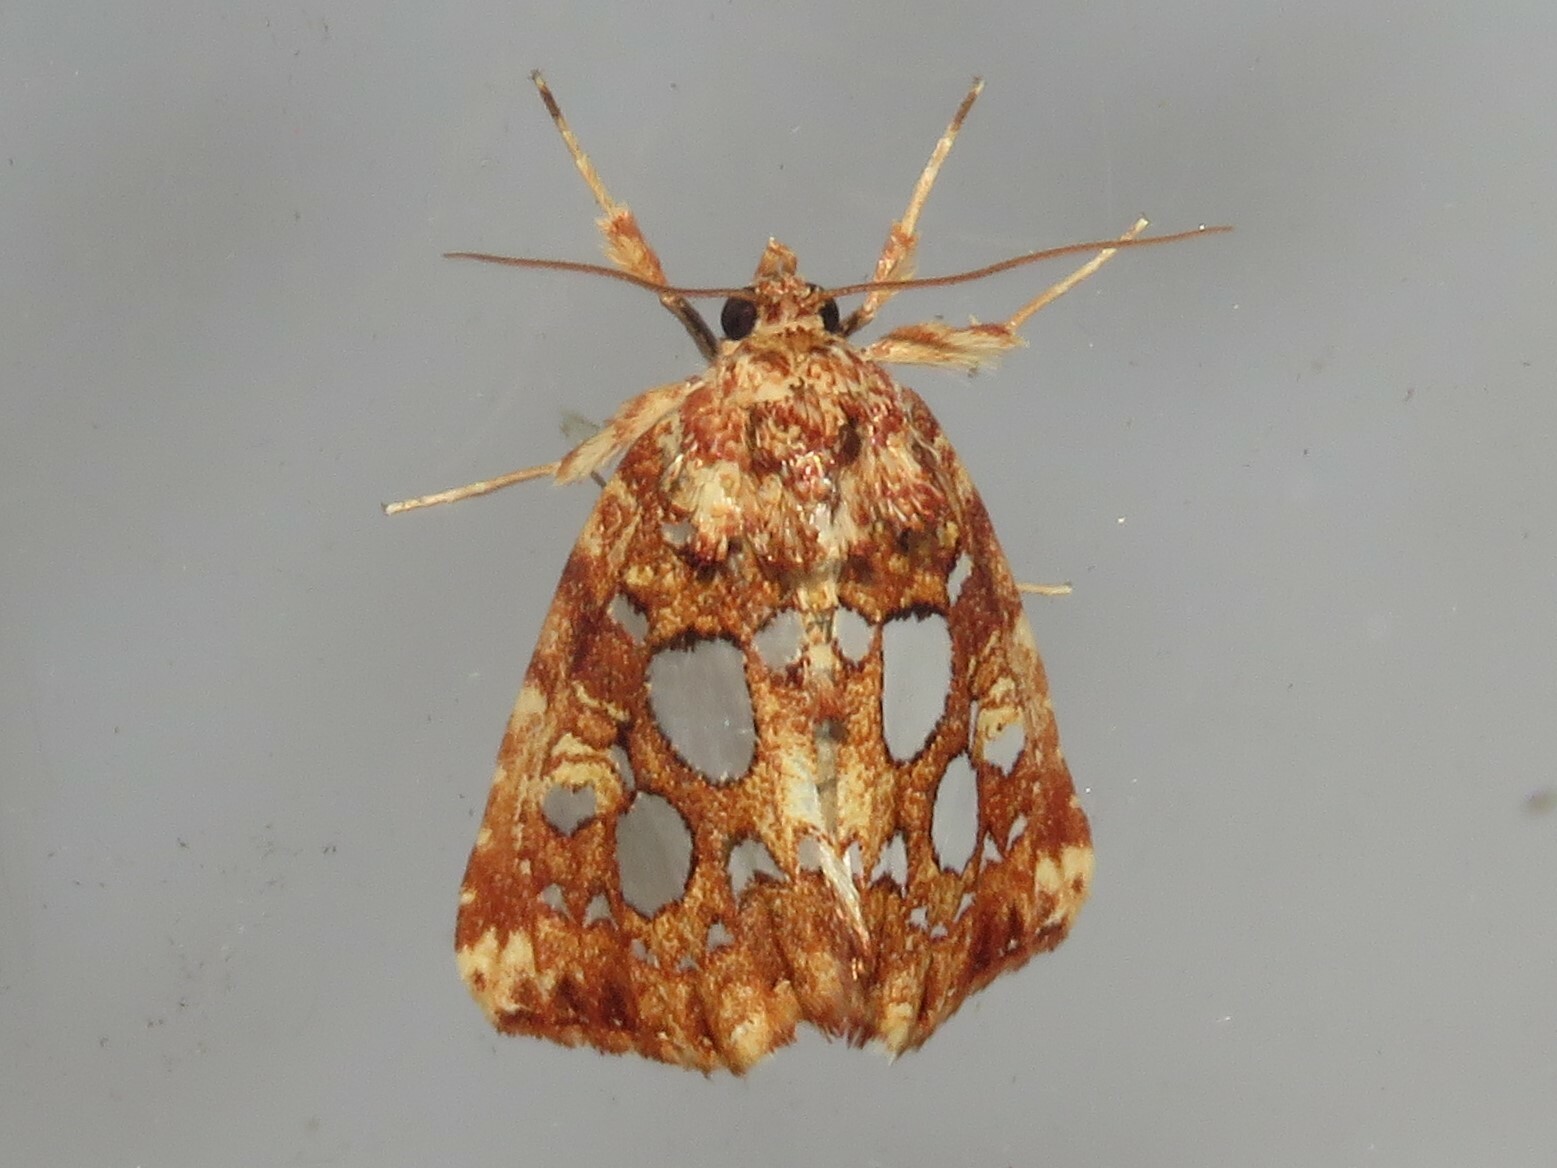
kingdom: Animalia
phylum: Arthropoda
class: Insecta
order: Lepidoptera
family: Noctuidae
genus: Callopistria
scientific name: Callopistria cordata
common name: Silver-spotted fern moth
